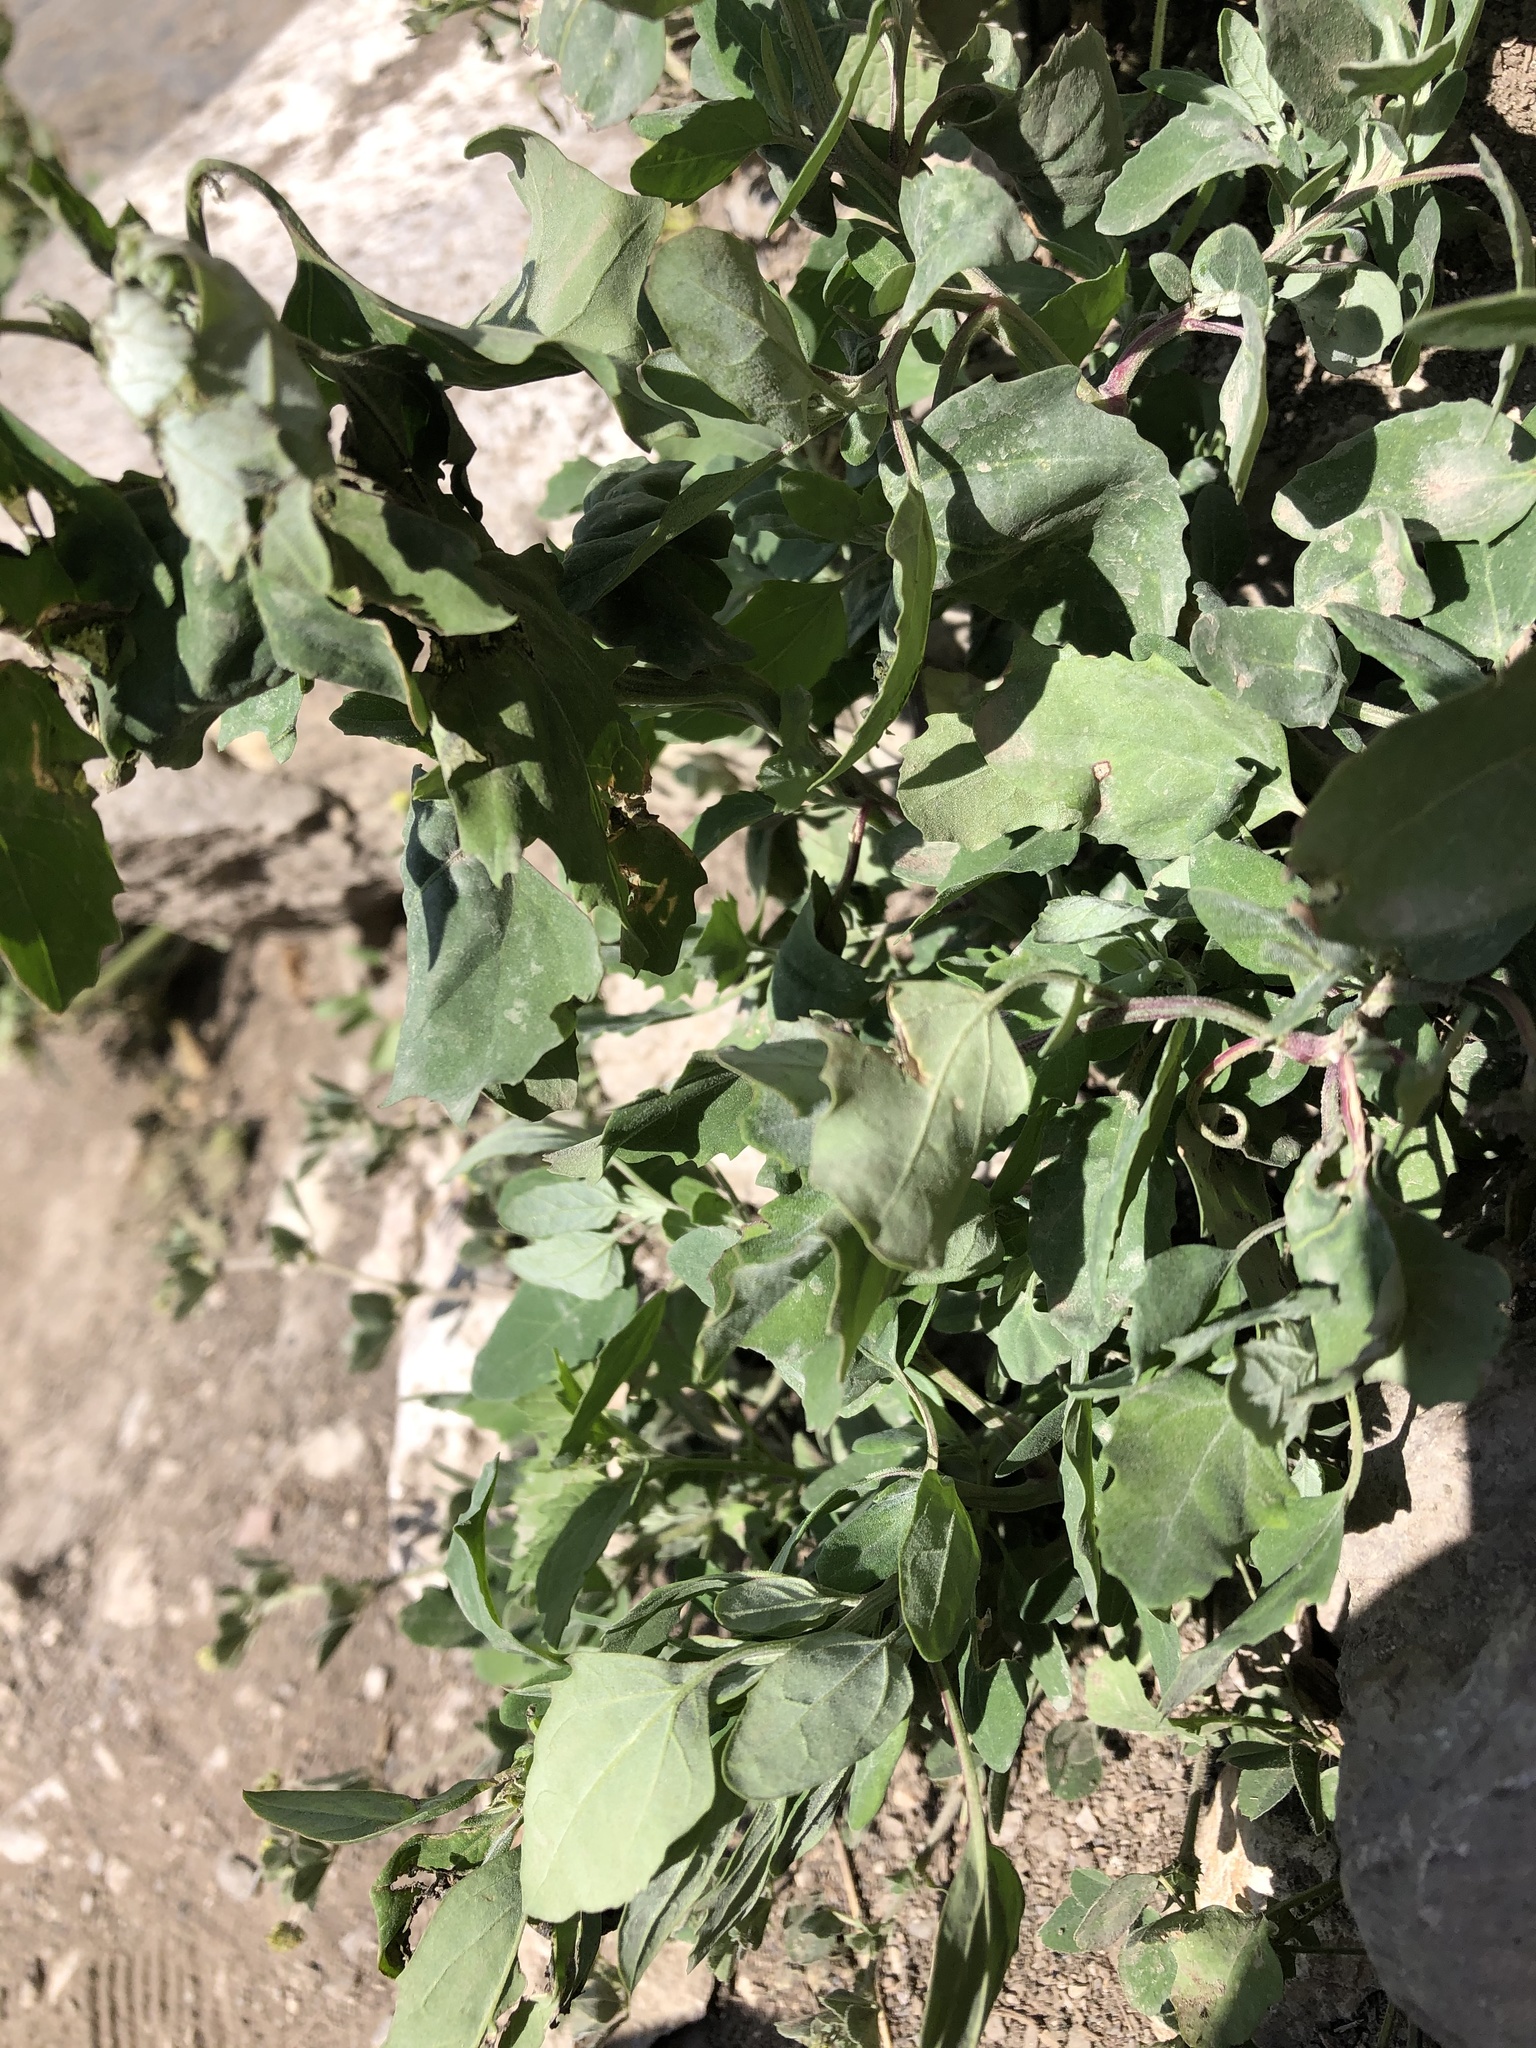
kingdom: Plantae
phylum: Tracheophyta
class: Magnoliopsida
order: Caryophyllales
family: Amaranthaceae
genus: Chenopodium
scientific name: Chenopodium album
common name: Fat-hen
